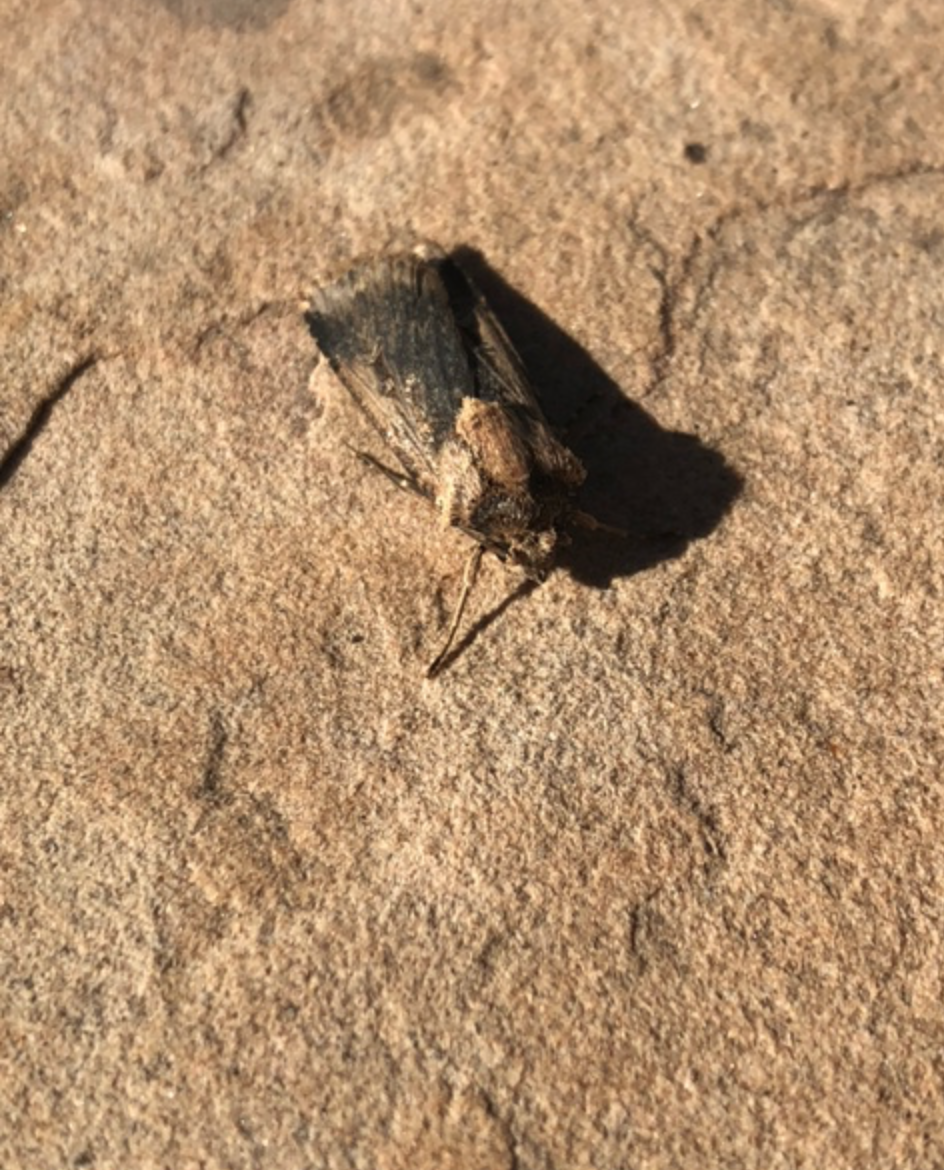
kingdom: Animalia
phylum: Arthropoda
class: Insecta
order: Lepidoptera
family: Noctuidae
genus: Feltia
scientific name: Feltia subterranea
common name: Granulate cutworm
